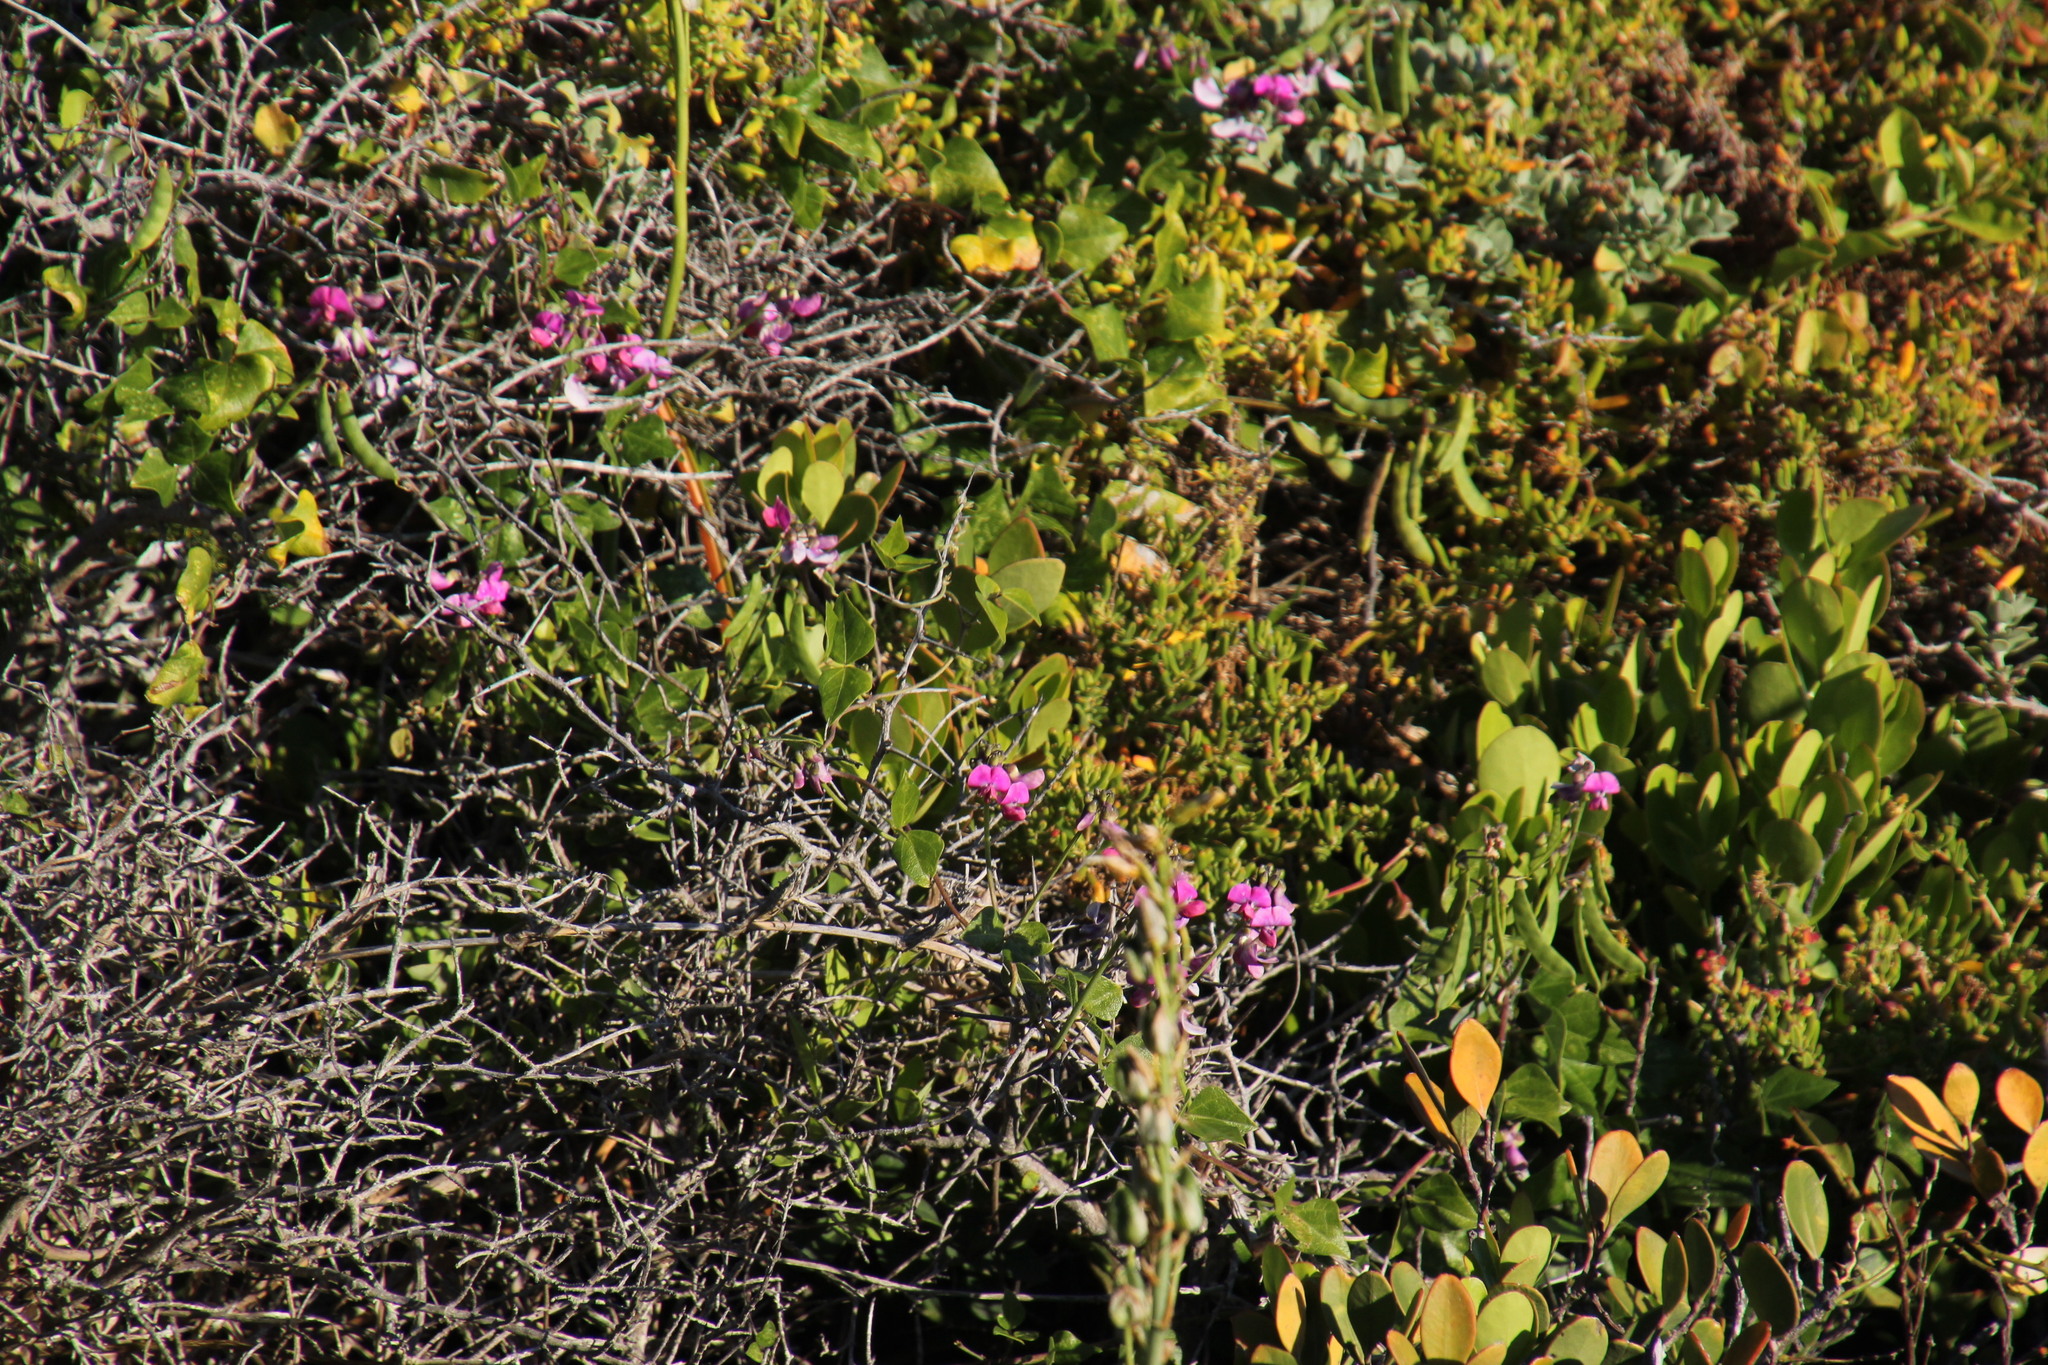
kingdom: Plantae
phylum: Tracheophyta
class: Magnoliopsida
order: Fabales
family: Fabaceae
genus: Dipogon
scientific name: Dipogon lignosus
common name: Okie bean
